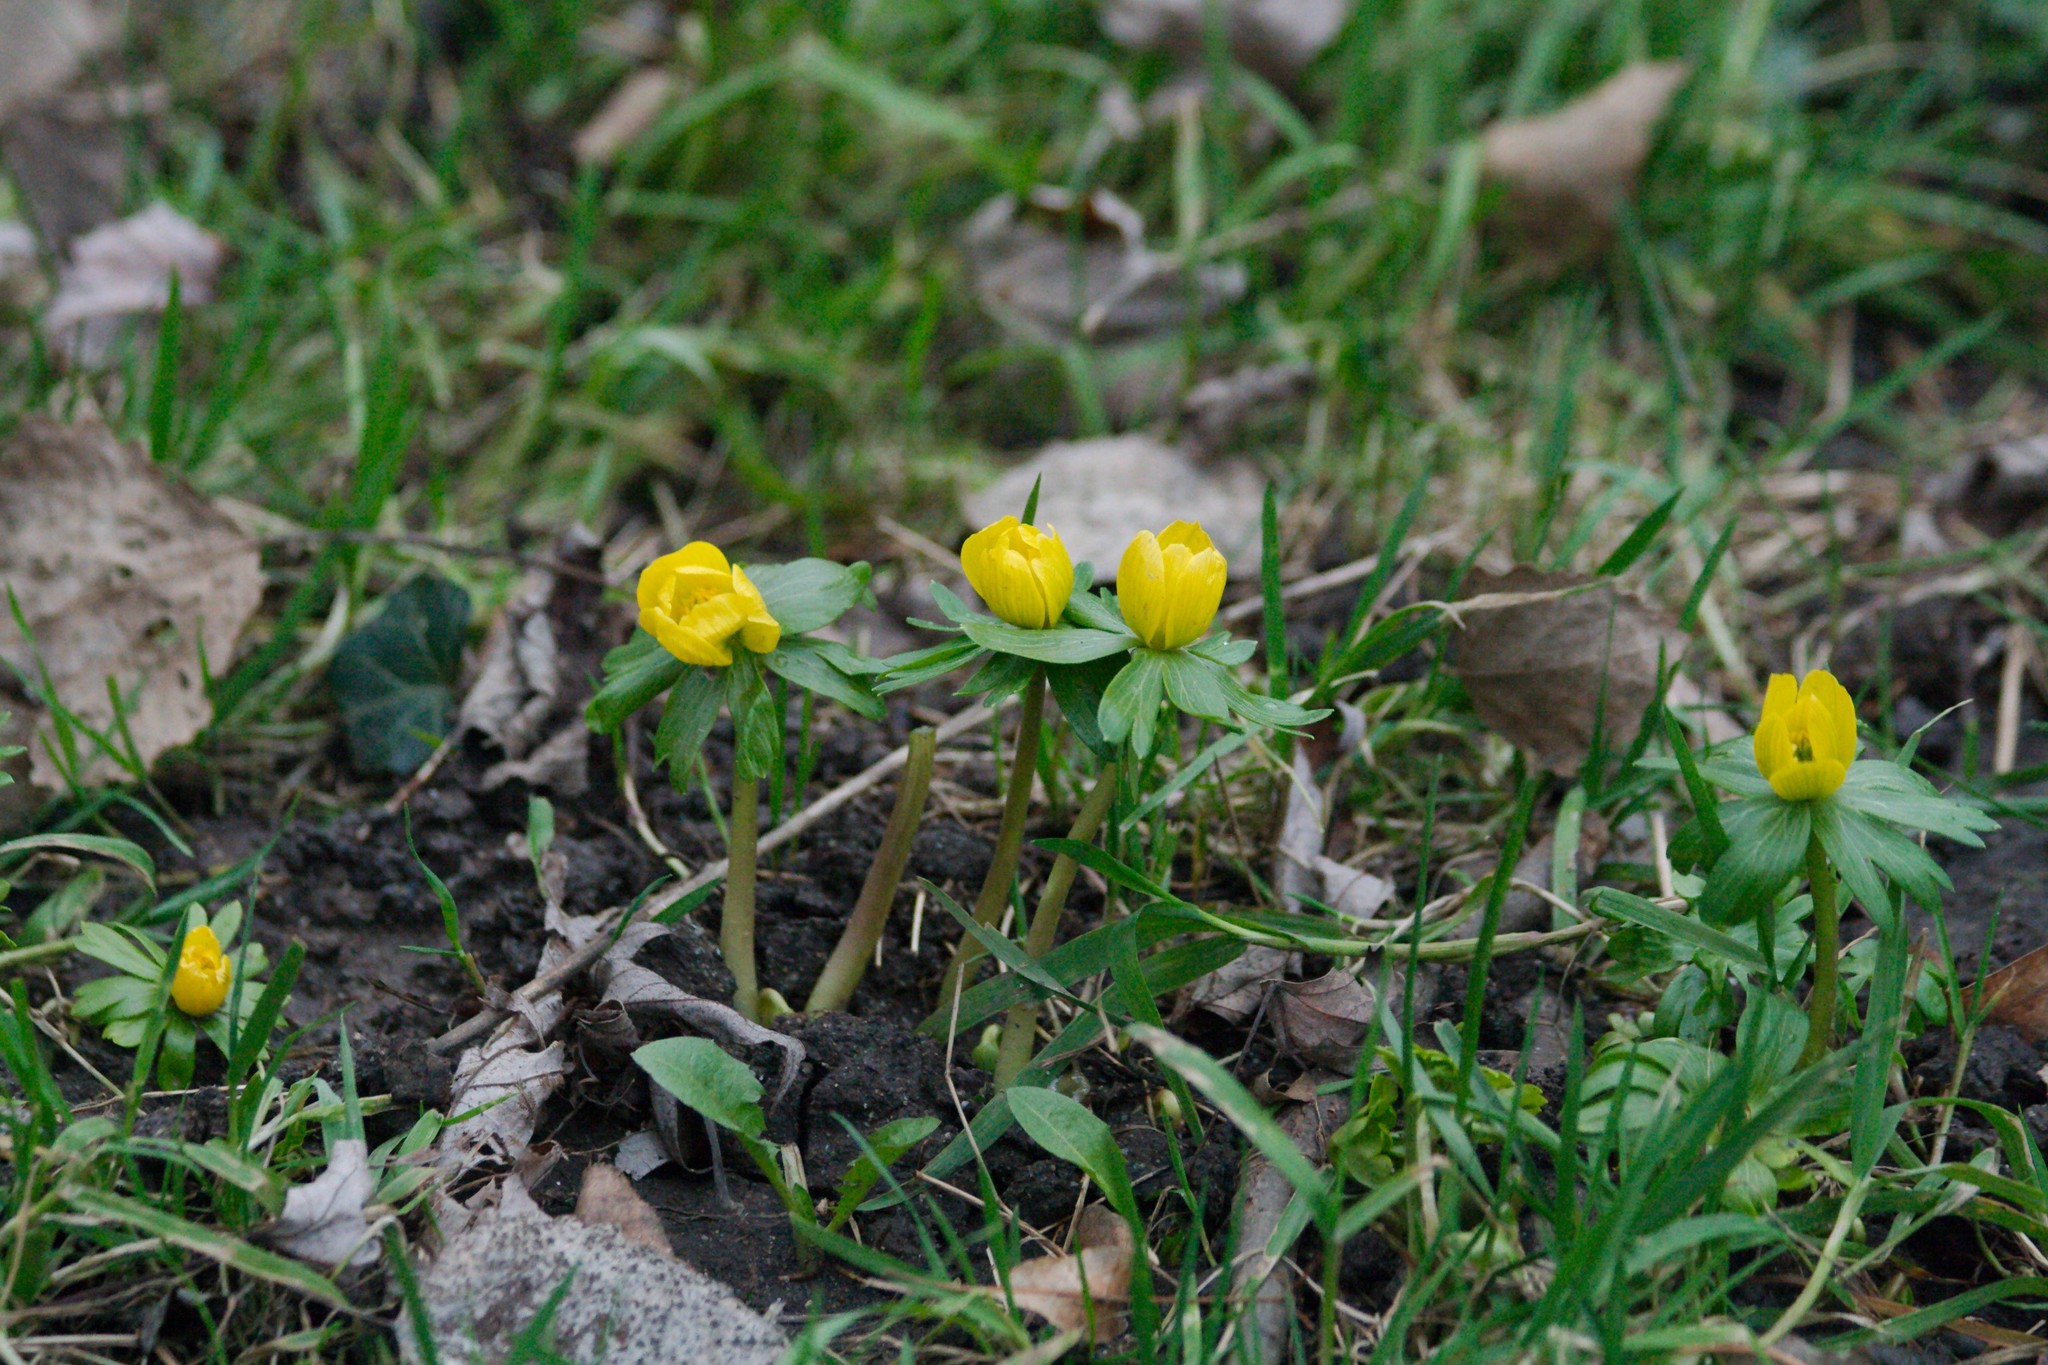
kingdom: Plantae
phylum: Tracheophyta
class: Magnoliopsida
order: Ranunculales
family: Ranunculaceae
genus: Eranthis
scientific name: Eranthis hyemalis
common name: Winter aconite
